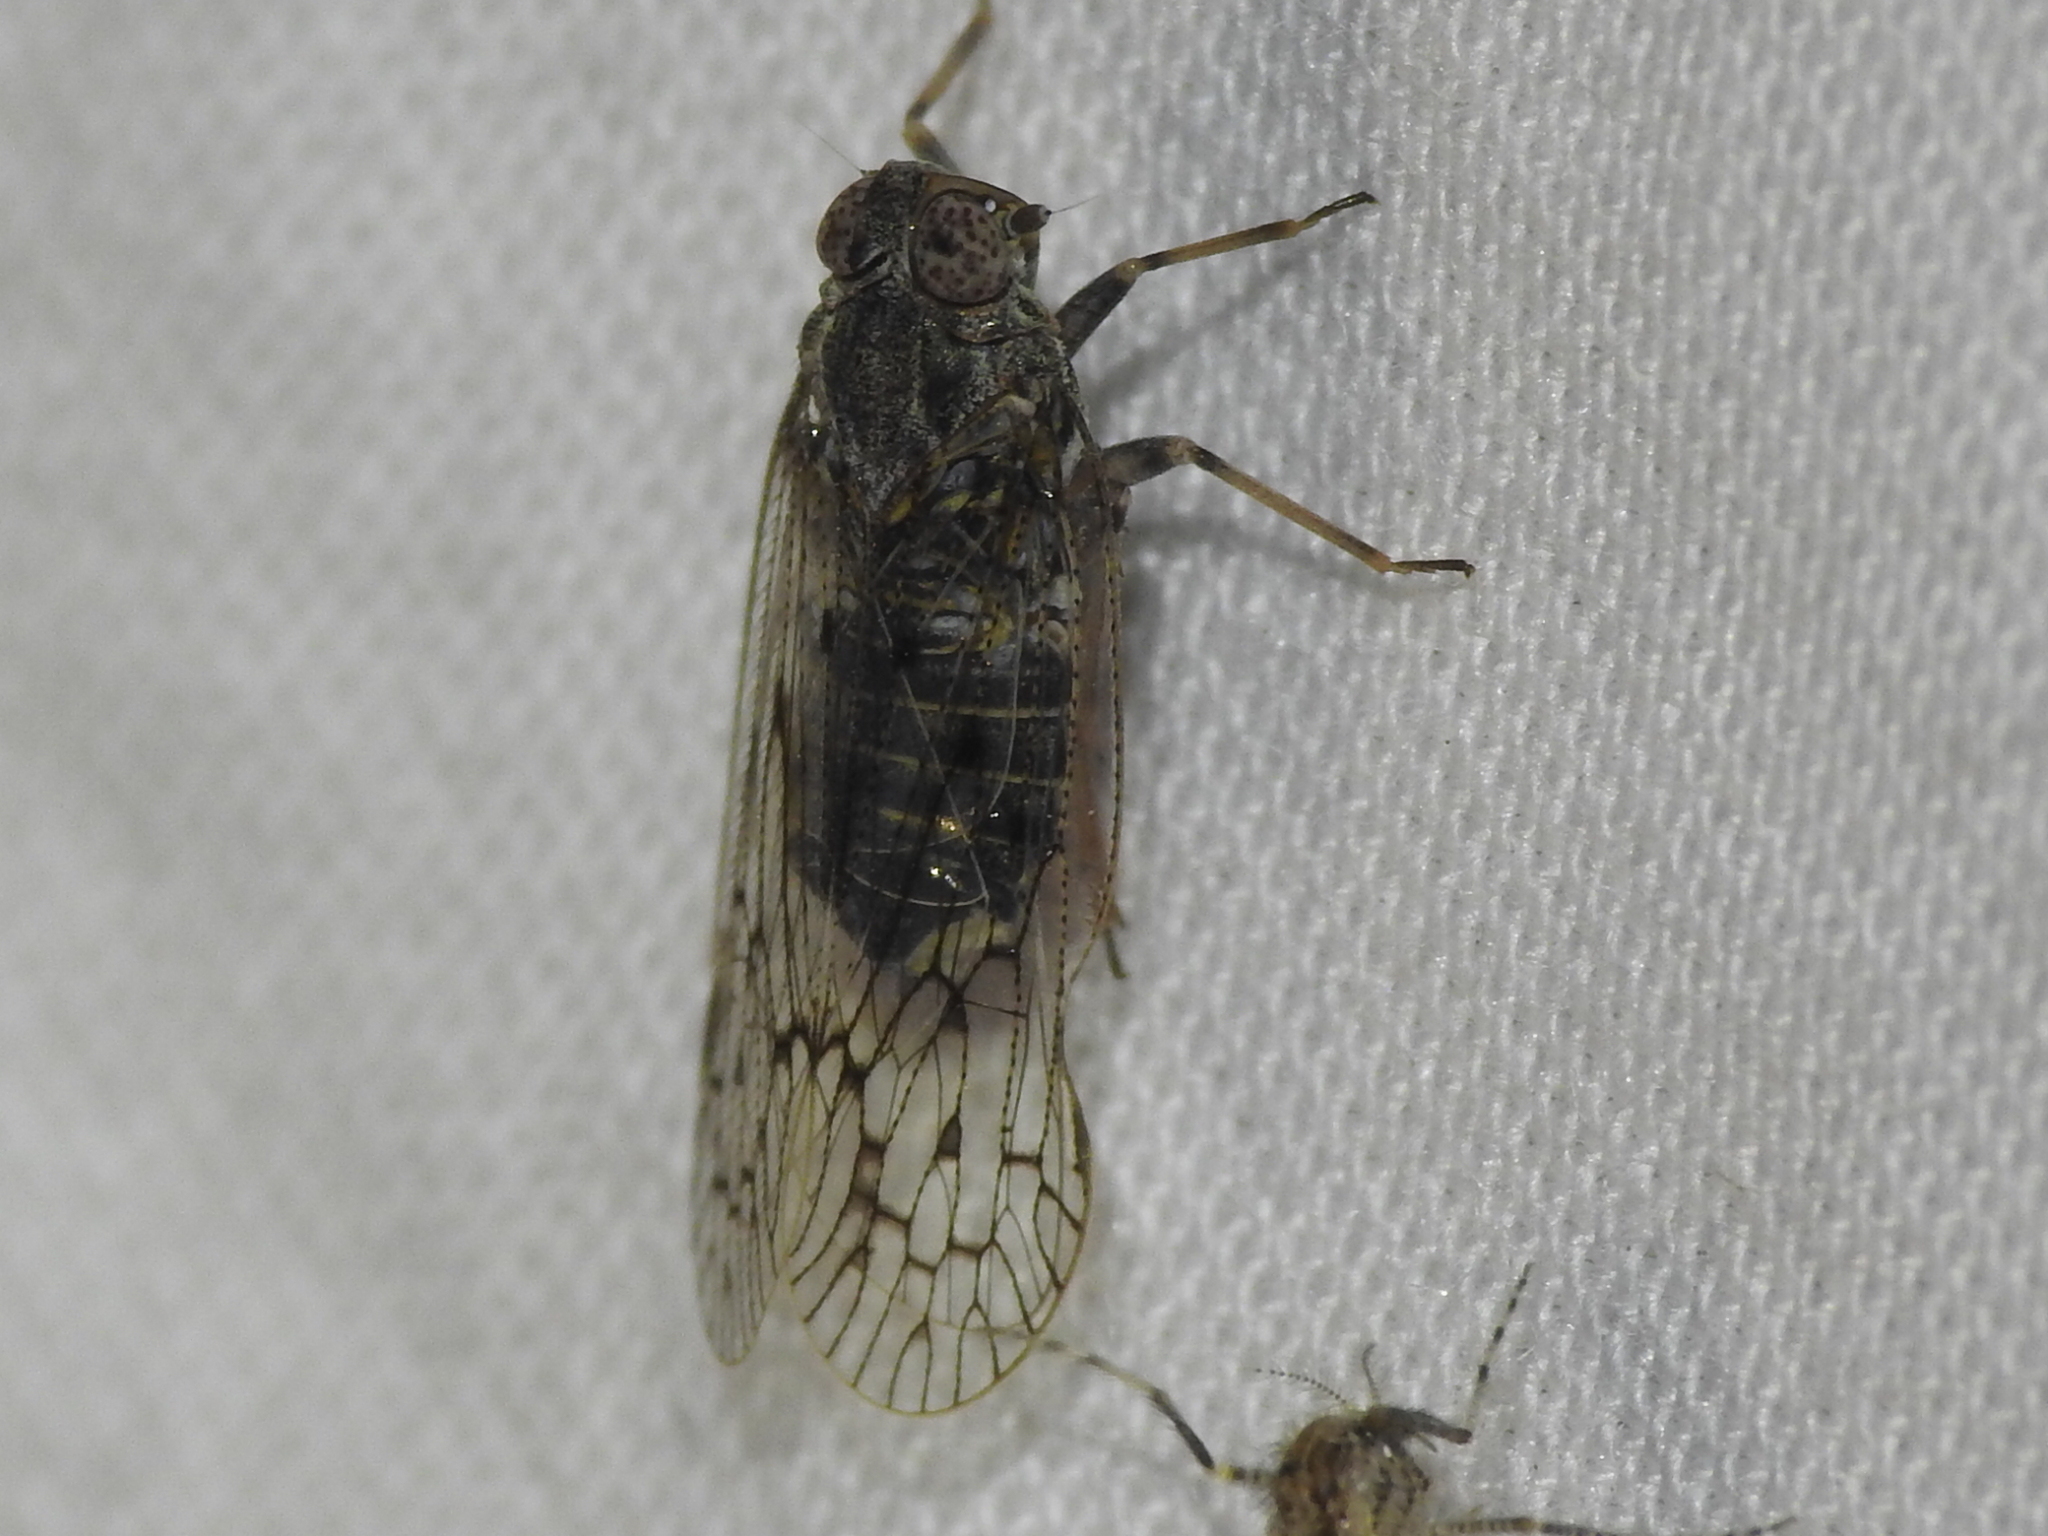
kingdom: Animalia
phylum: Arthropoda
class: Insecta
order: Hemiptera
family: Cixiidae
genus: Melanoliarus
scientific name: Melanoliarus aridus
